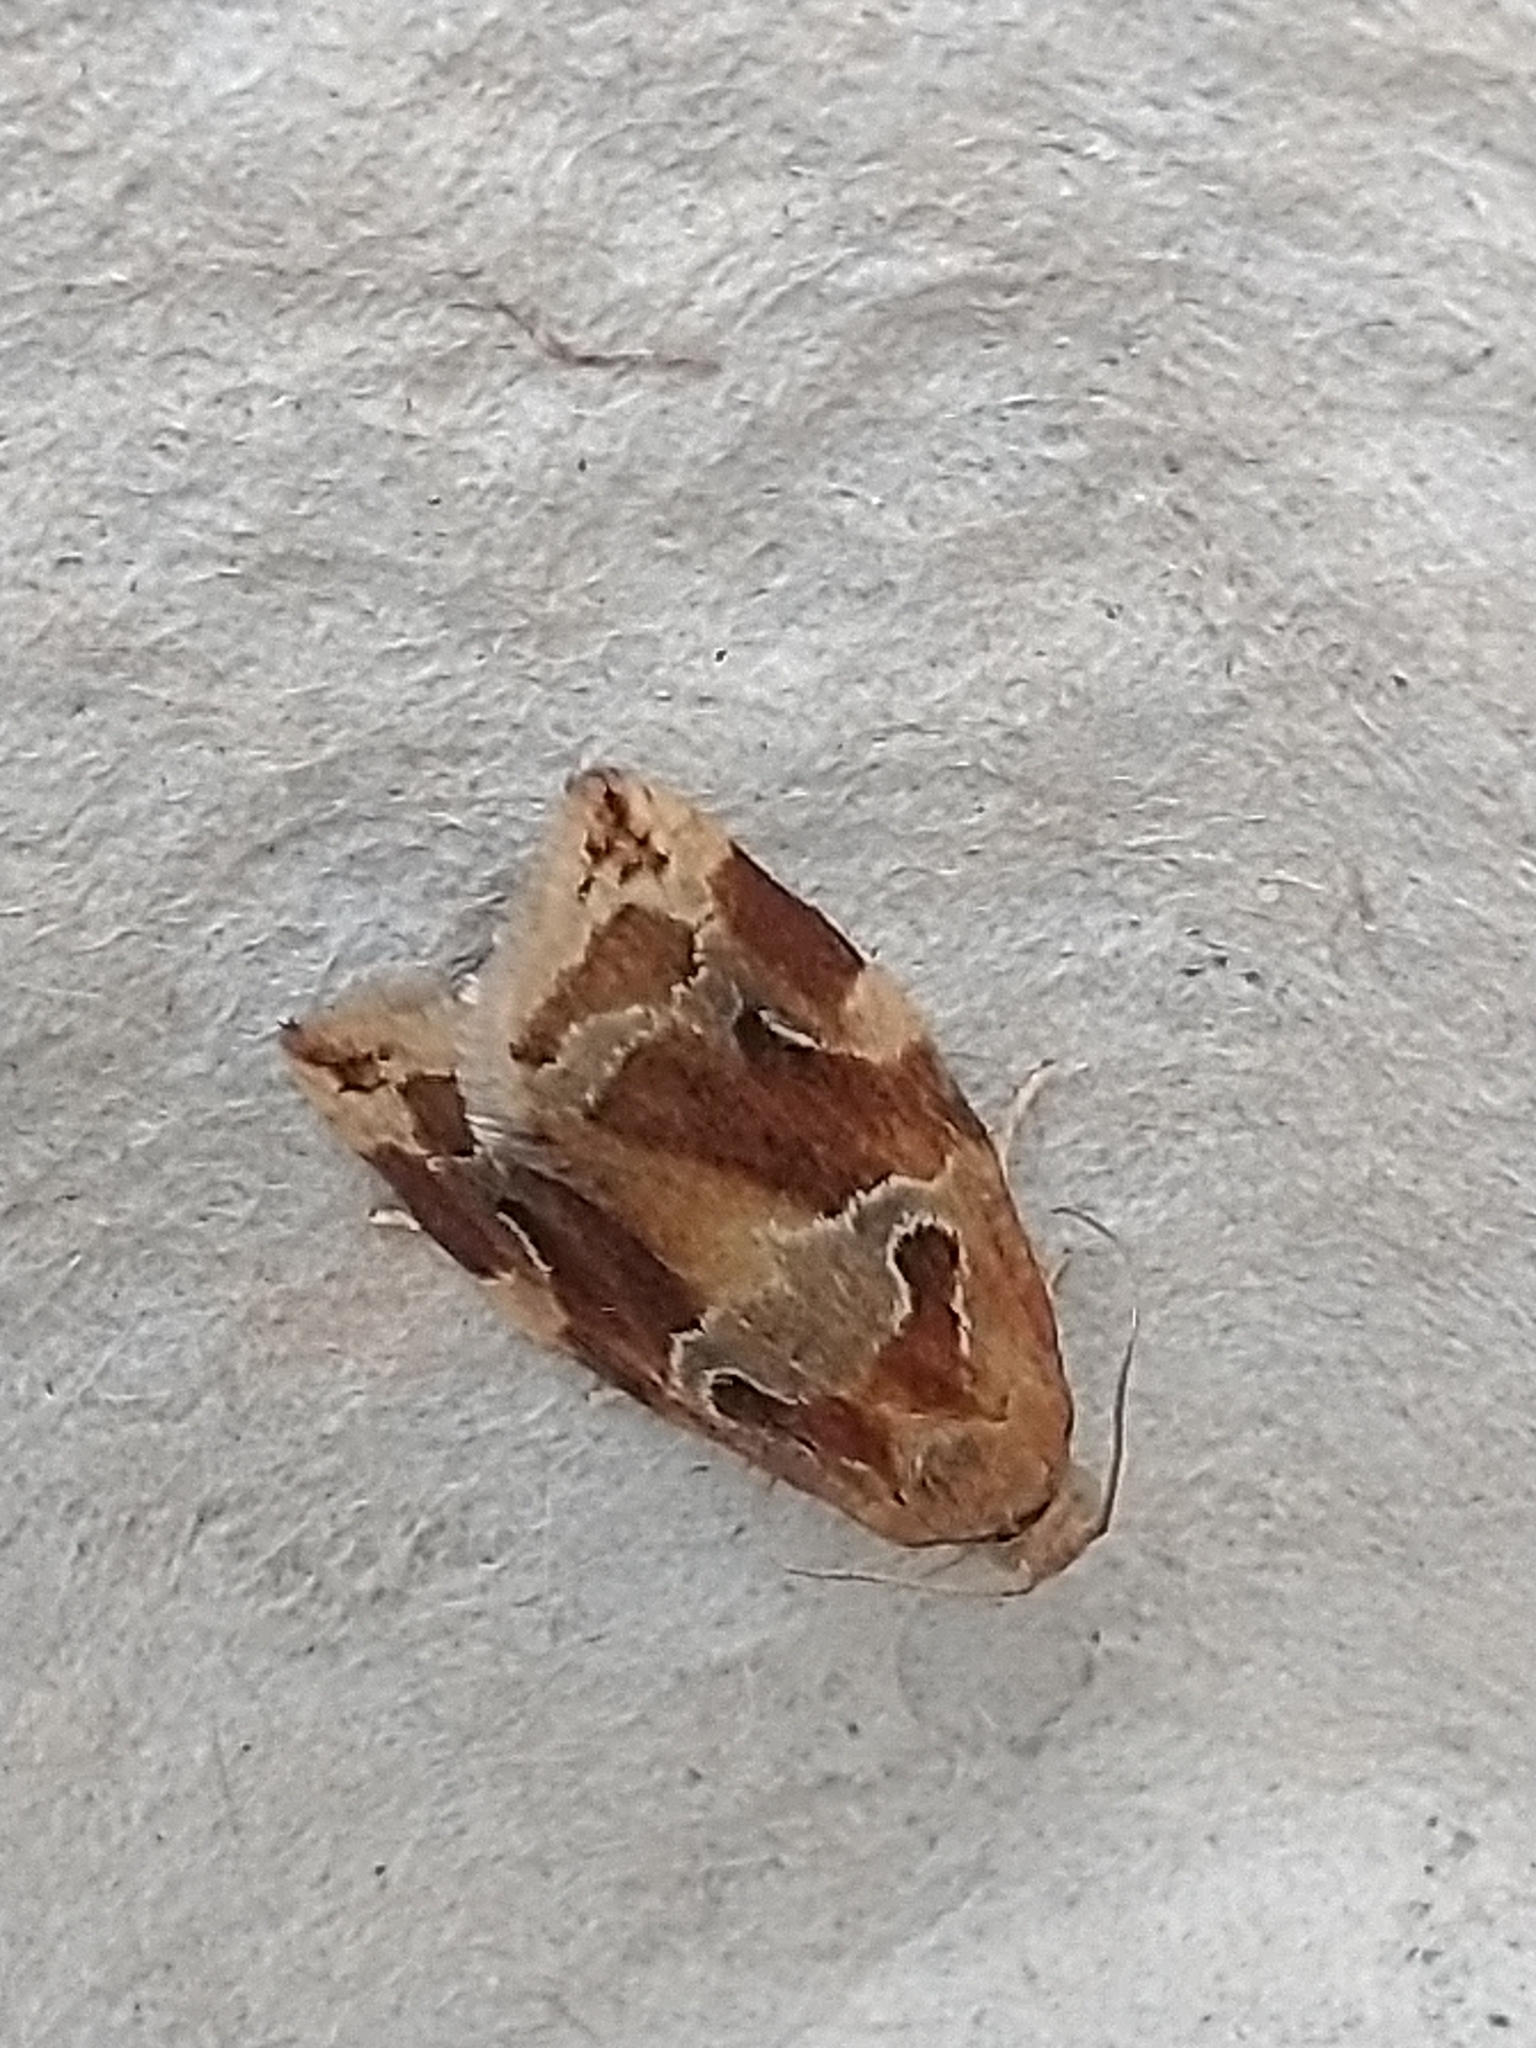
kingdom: Animalia
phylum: Arthropoda
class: Insecta
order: Lepidoptera
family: Tortricidae
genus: Archips
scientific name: Archips xylosteana
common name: Variegated golden tortrix
